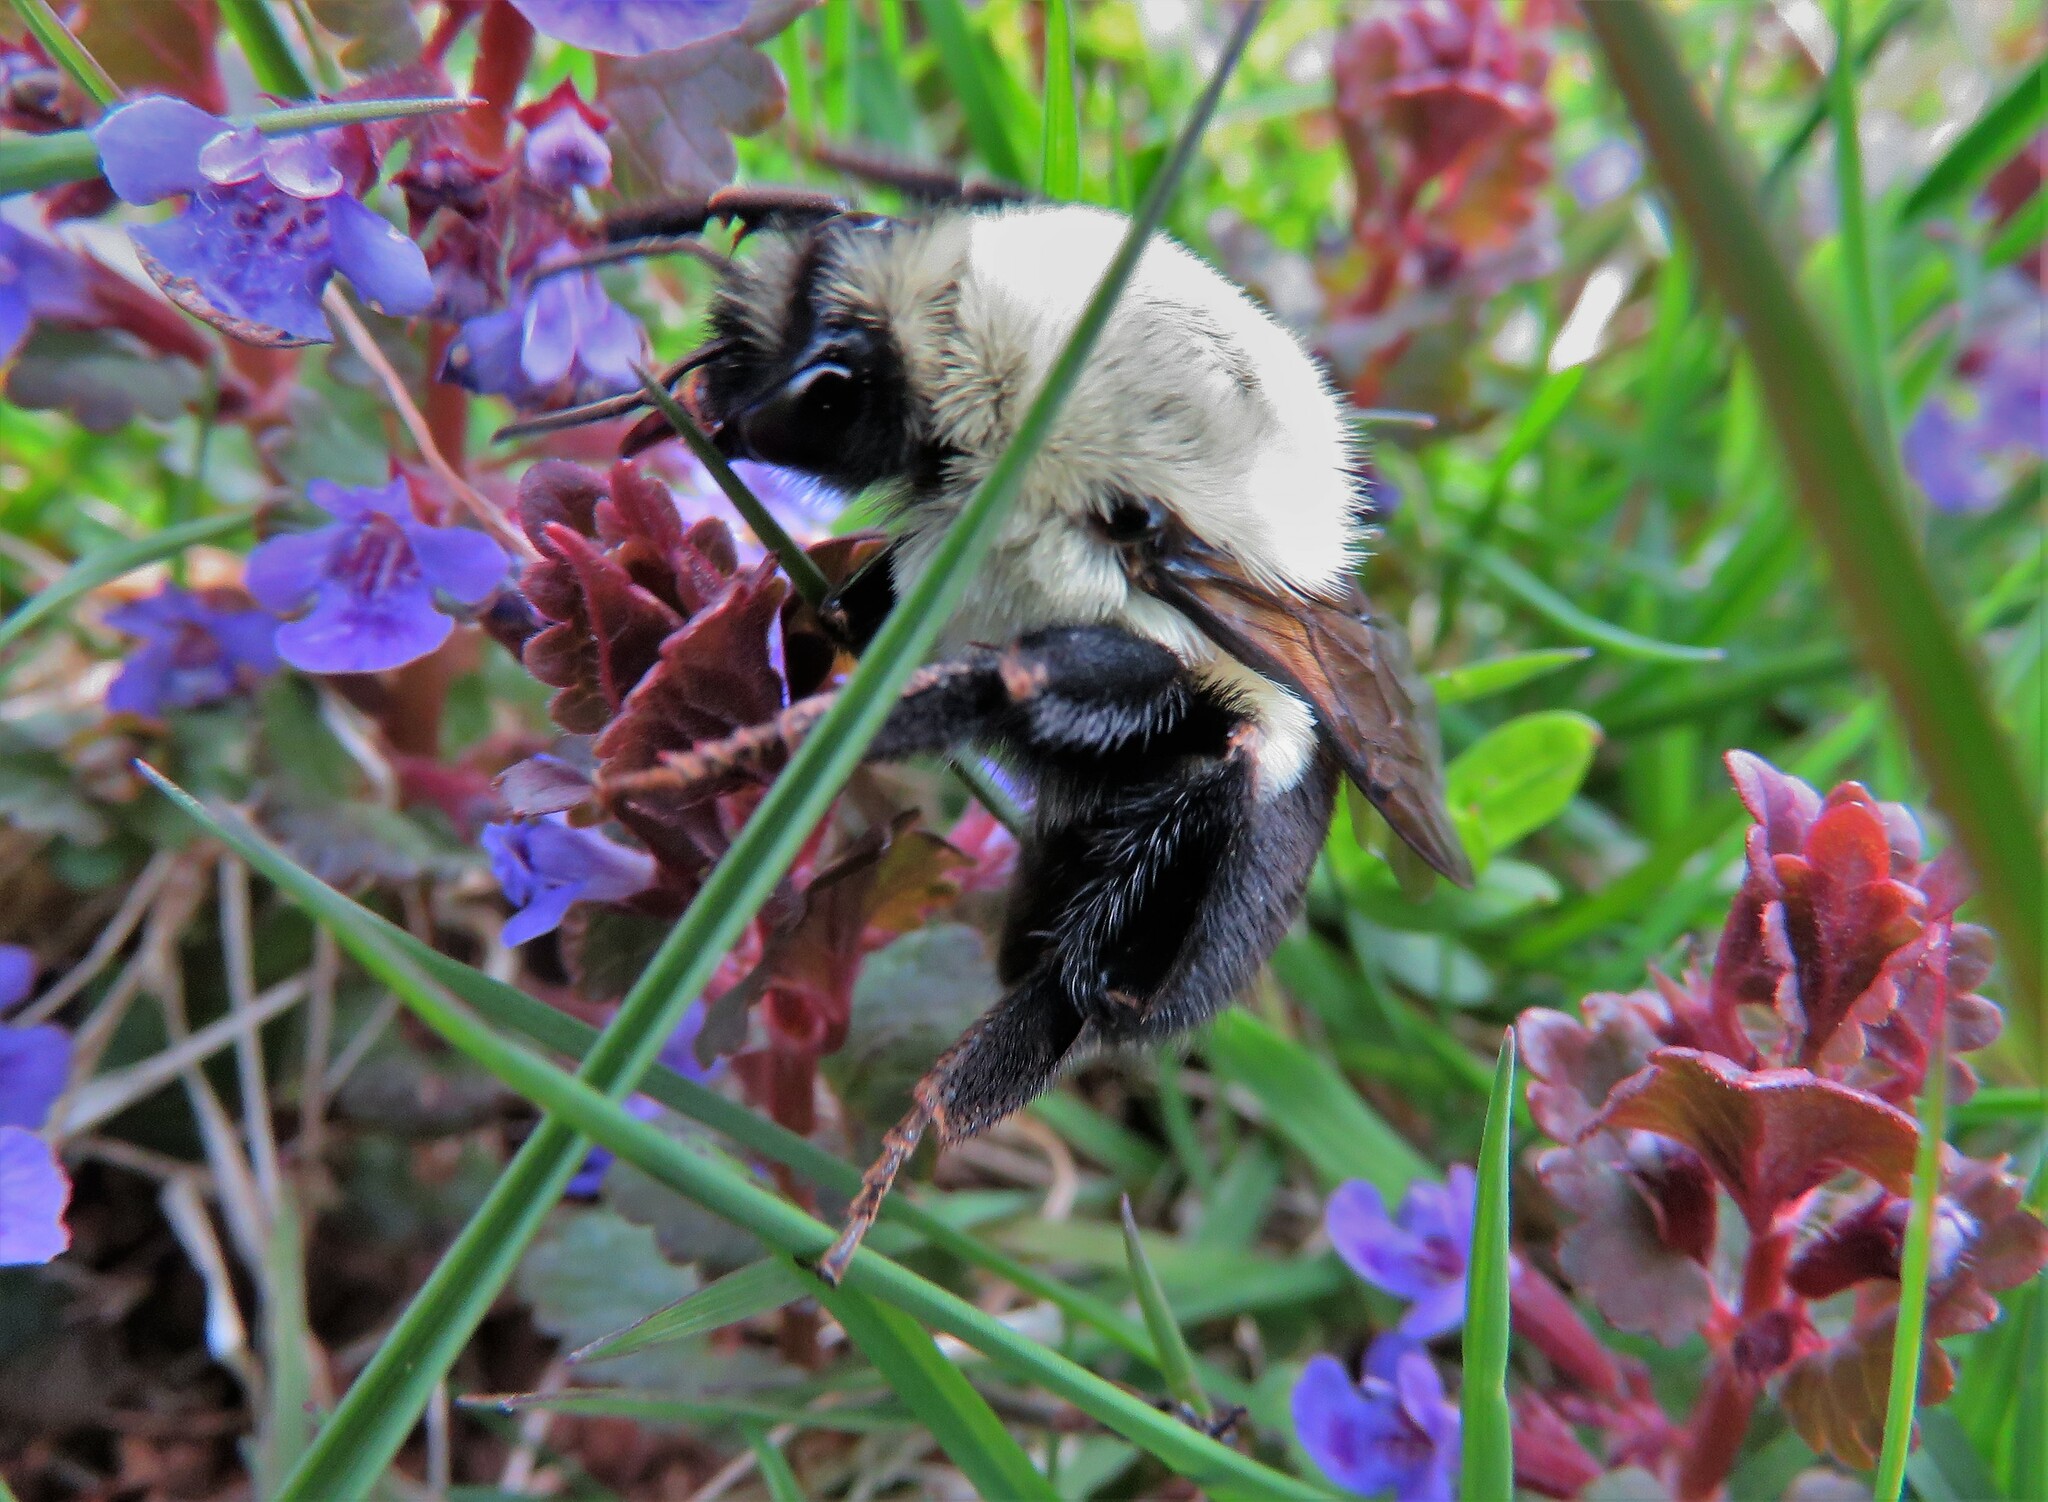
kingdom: Animalia
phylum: Arthropoda
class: Insecta
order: Hymenoptera
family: Apidae
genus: Bombus
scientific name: Bombus impatiens
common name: Common eastern bumble bee
